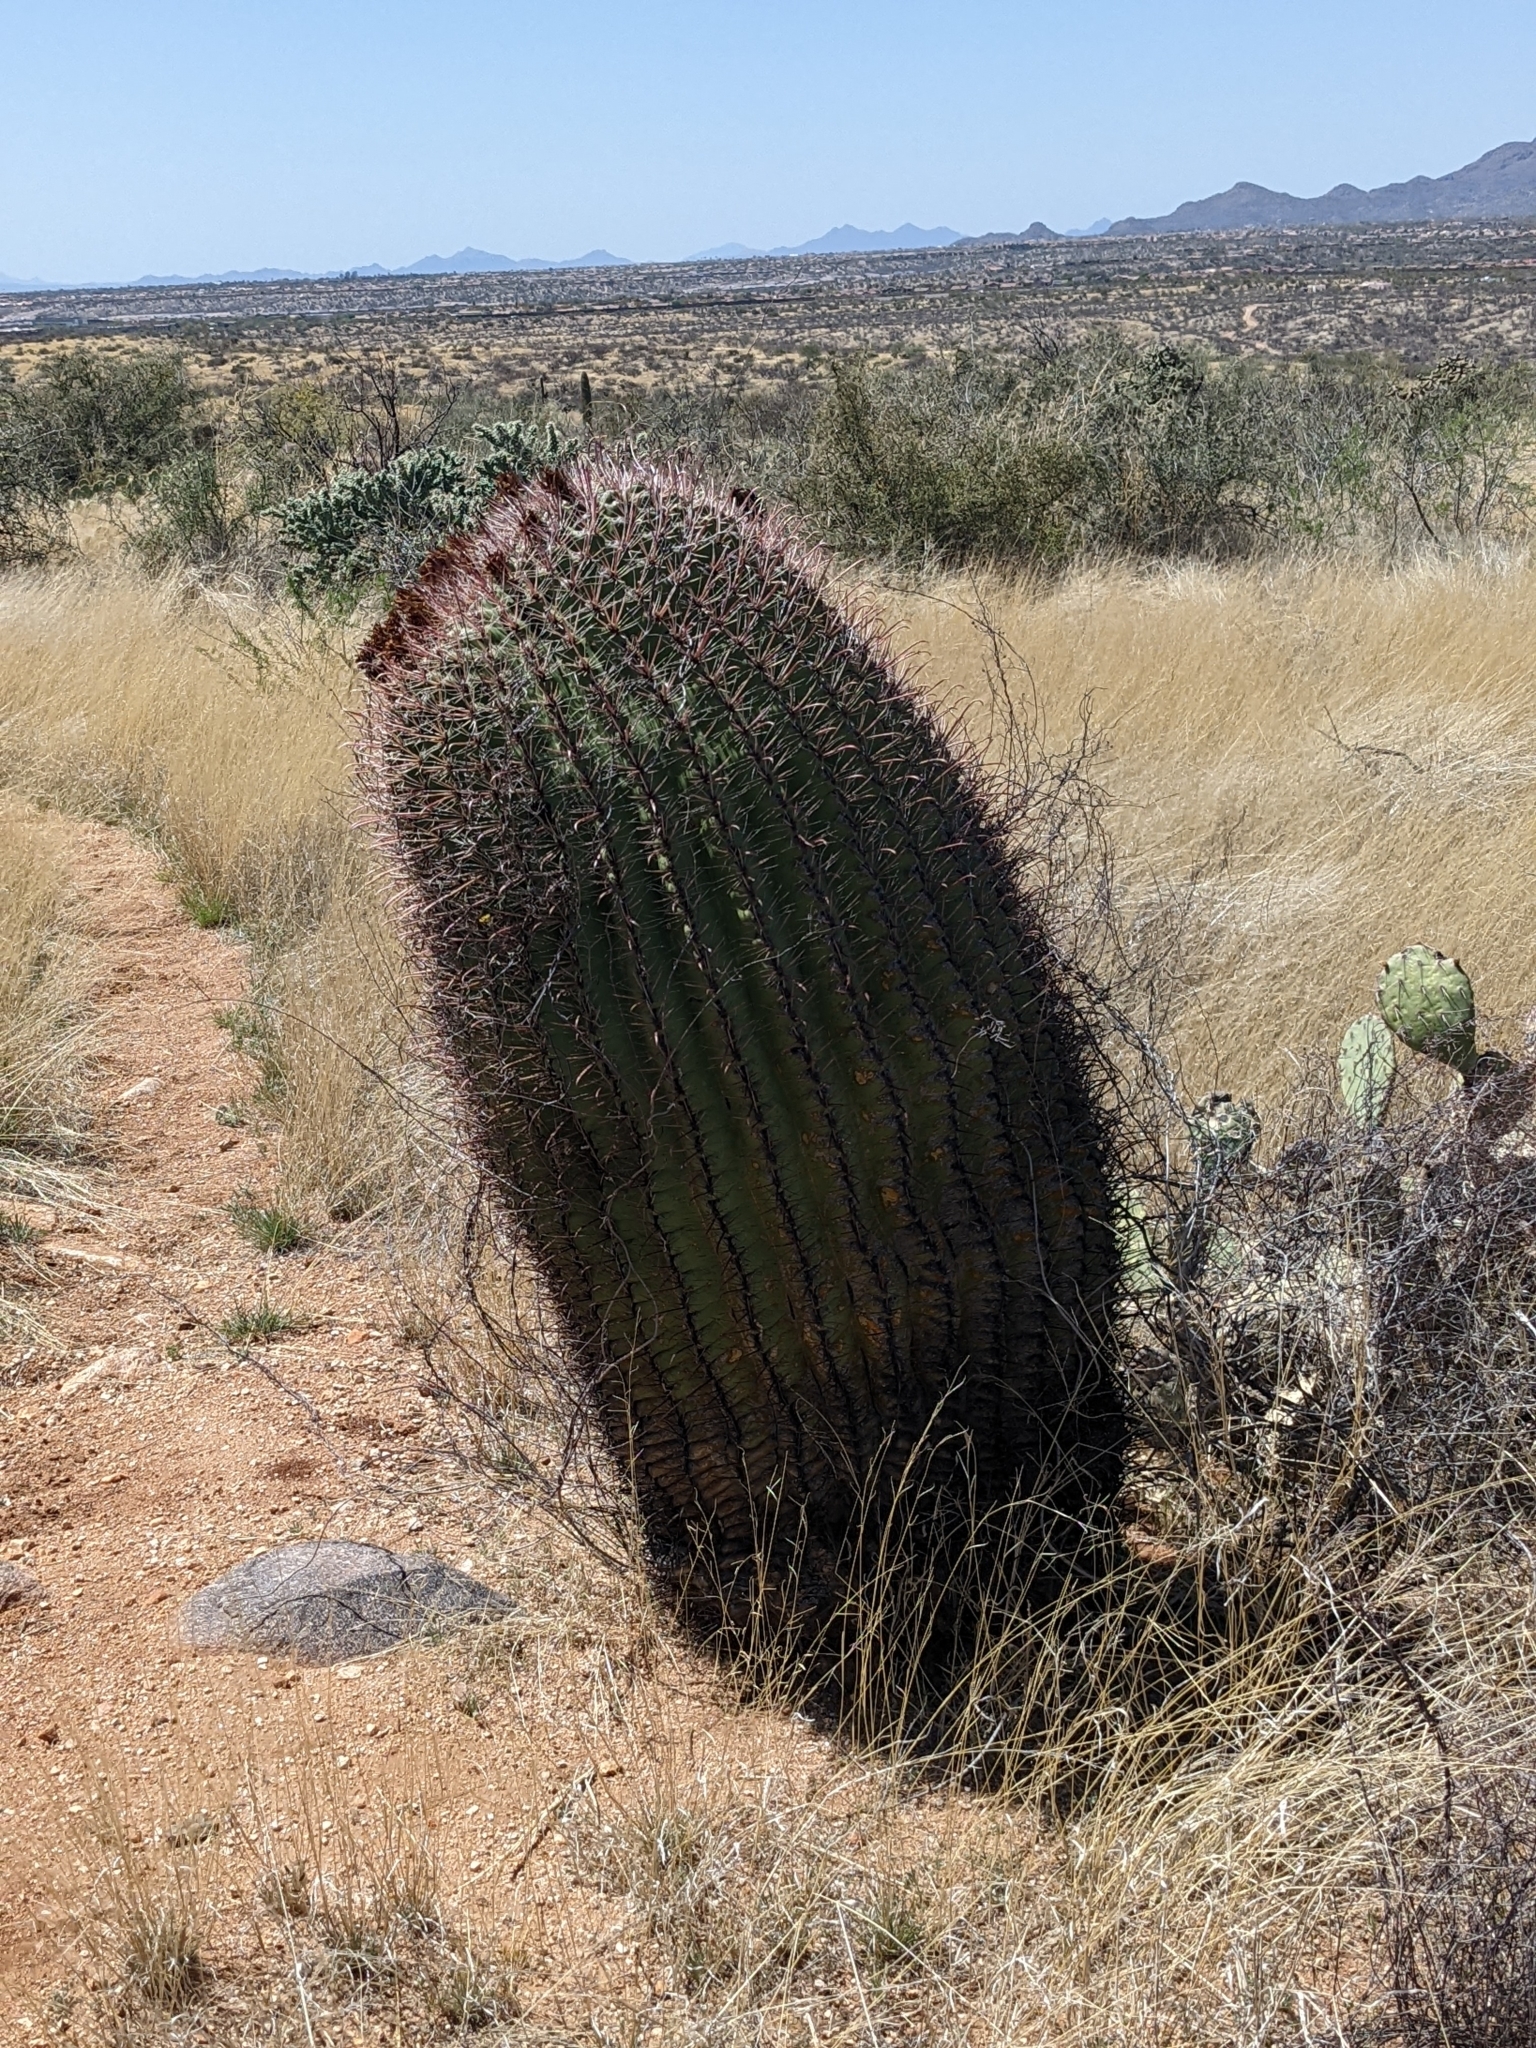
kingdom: Plantae
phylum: Tracheophyta
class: Magnoliopsida
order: Caryophyllales
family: Cactaceae
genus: Ferocactus
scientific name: Ferocactus wislizeni
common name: Candy barrel cactus
